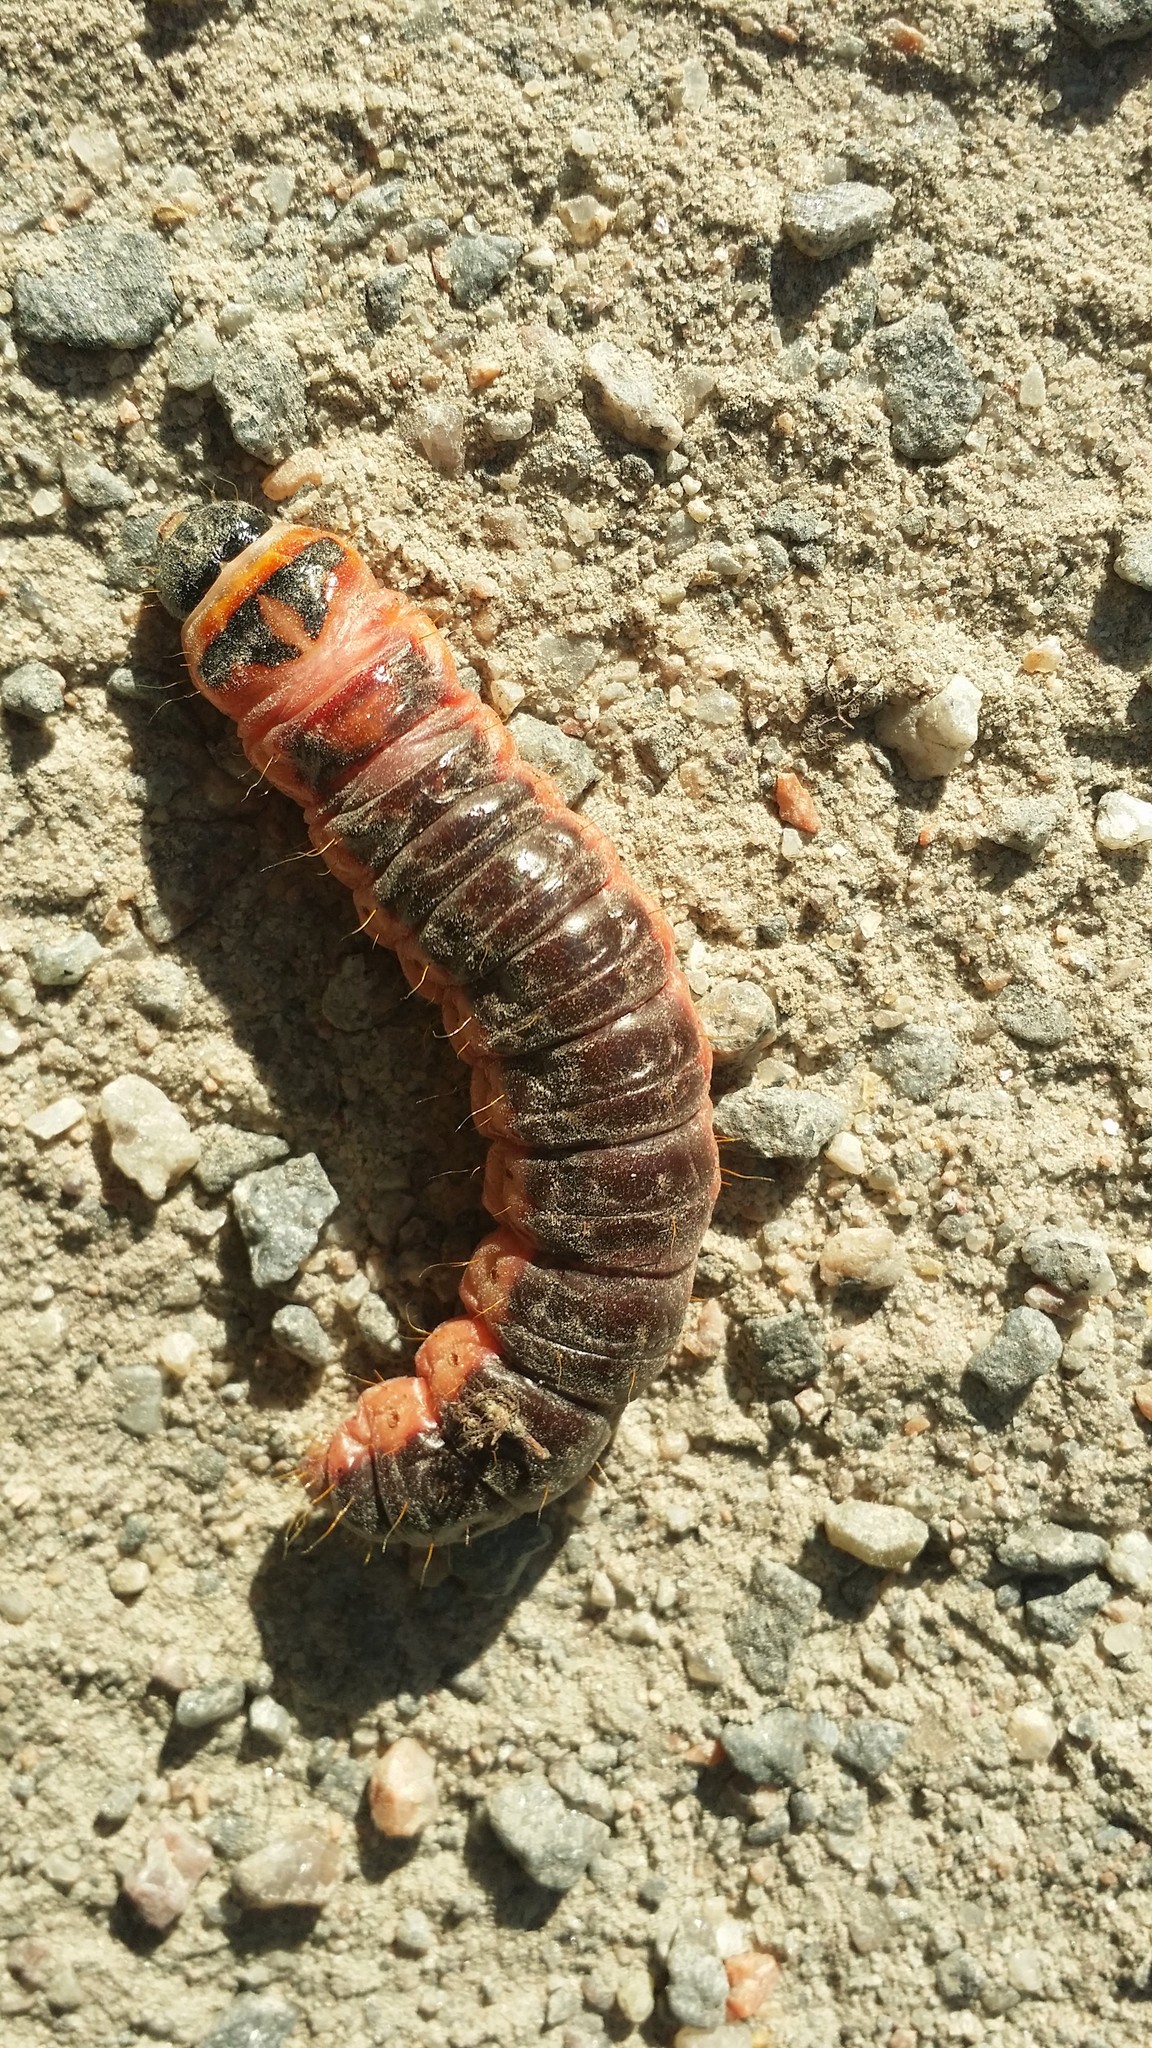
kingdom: Animalia
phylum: Arthropoda
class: Insecta
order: Lepidoptera
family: Cossidae
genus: Cossus
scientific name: Cossus cossus
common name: Goat moth
